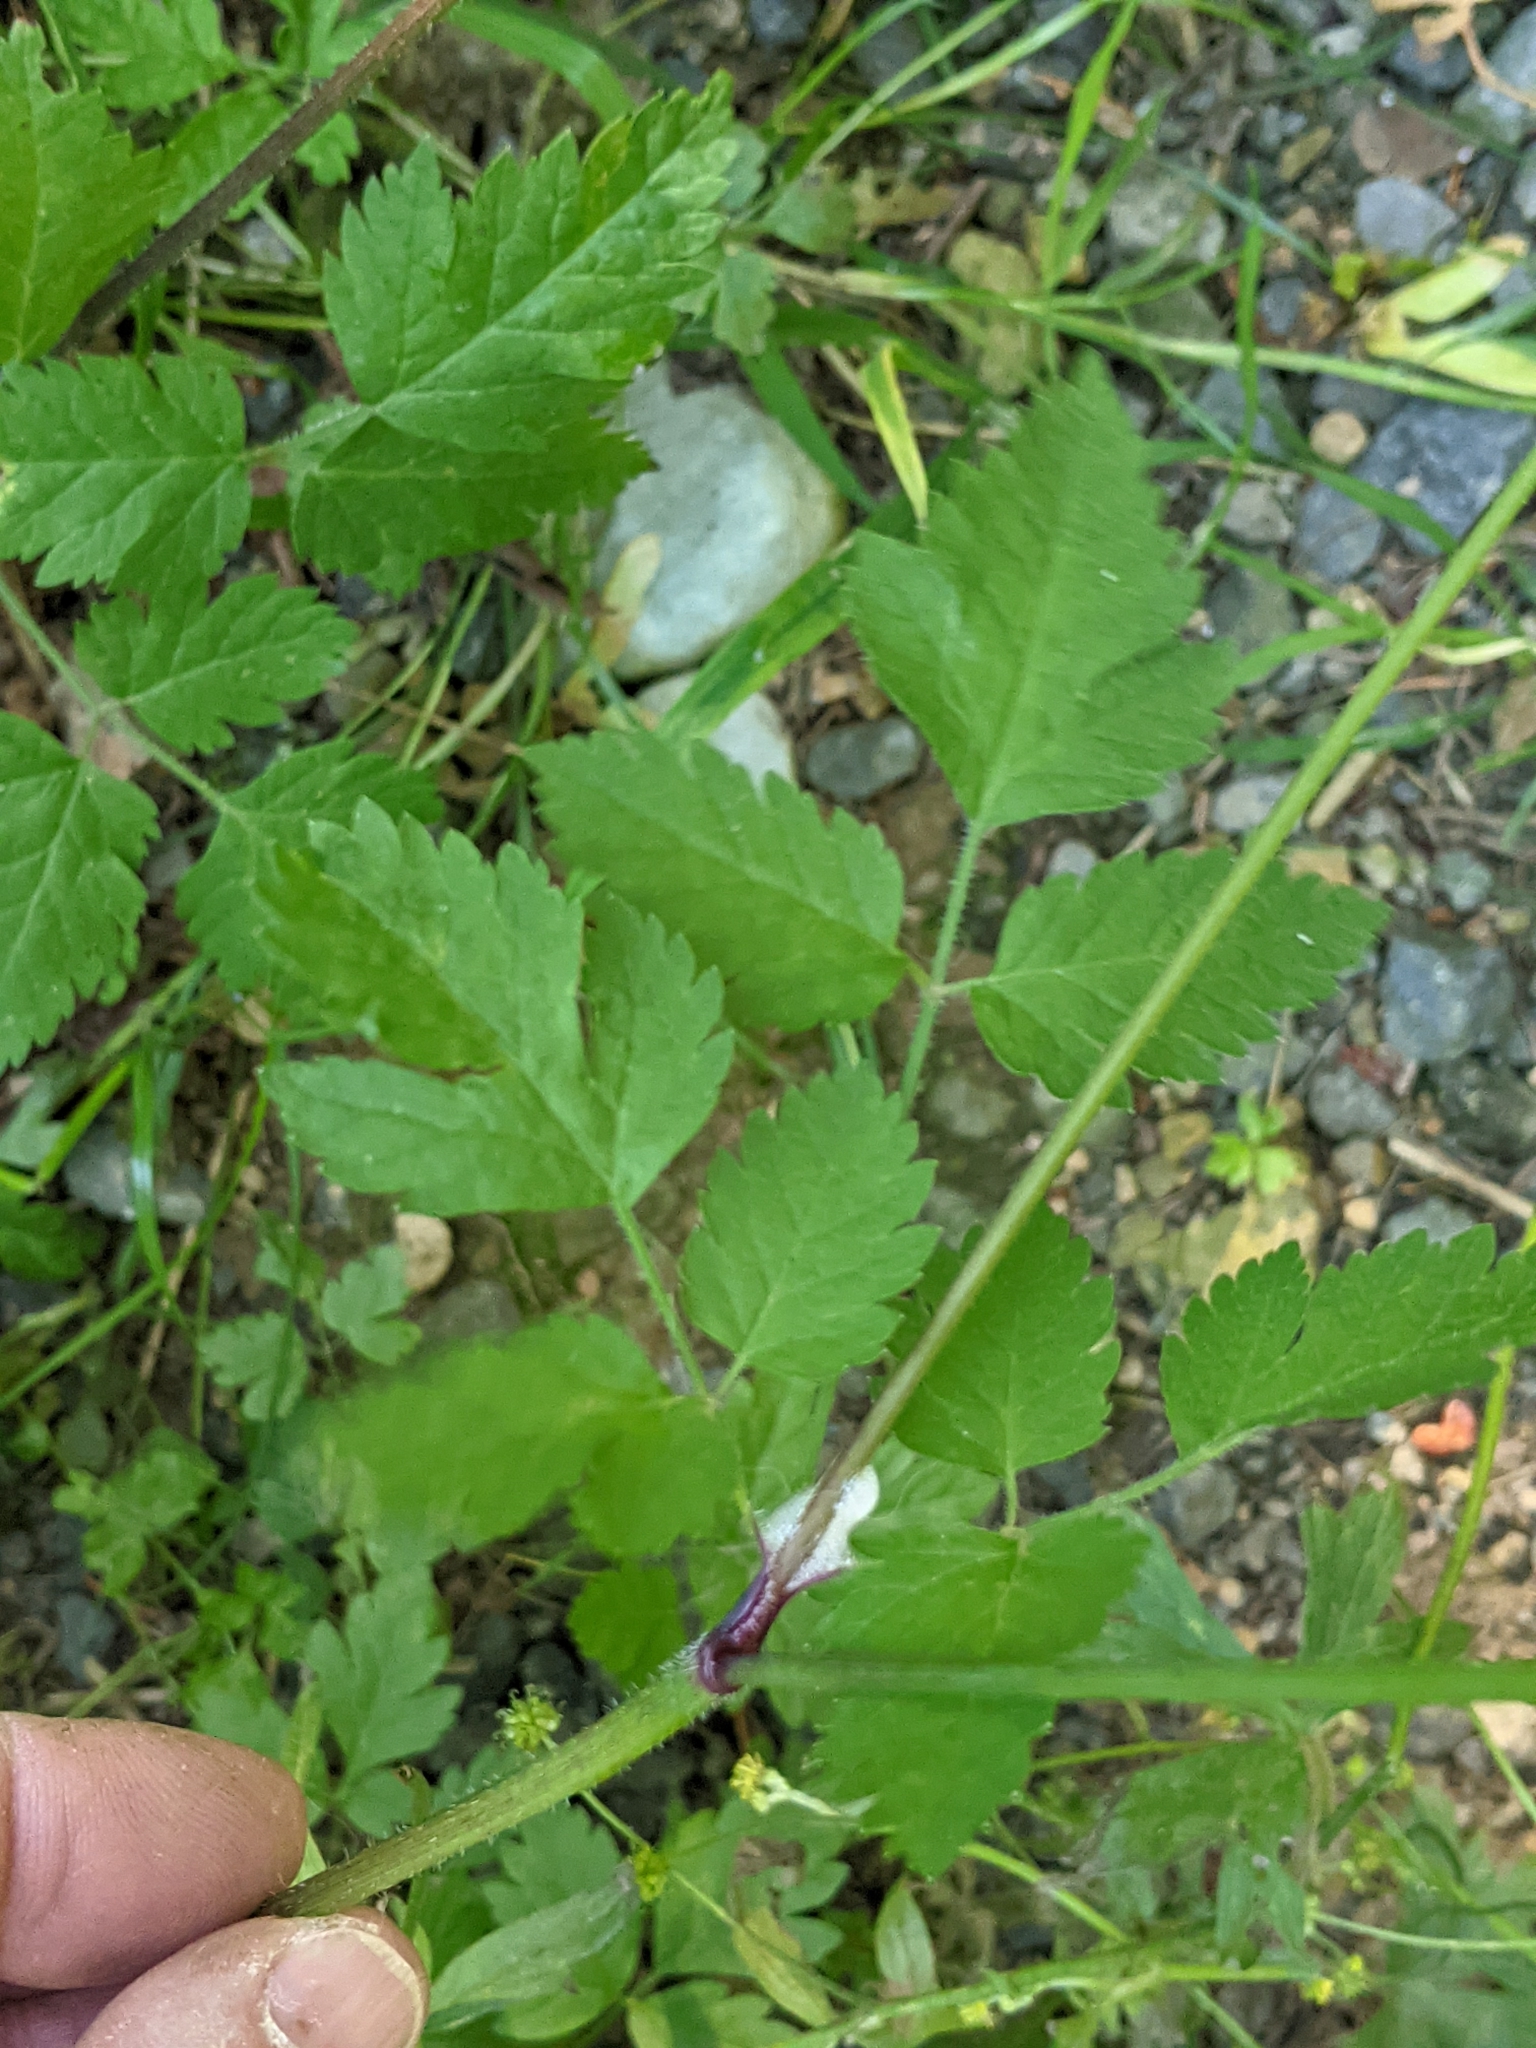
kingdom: Plantae
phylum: Tracheophyta
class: Magnoliopsida
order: Apiales
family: Apiaceae
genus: Osmorhiza
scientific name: Osmorhiza berteroi
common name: Mountain sweet cicely
